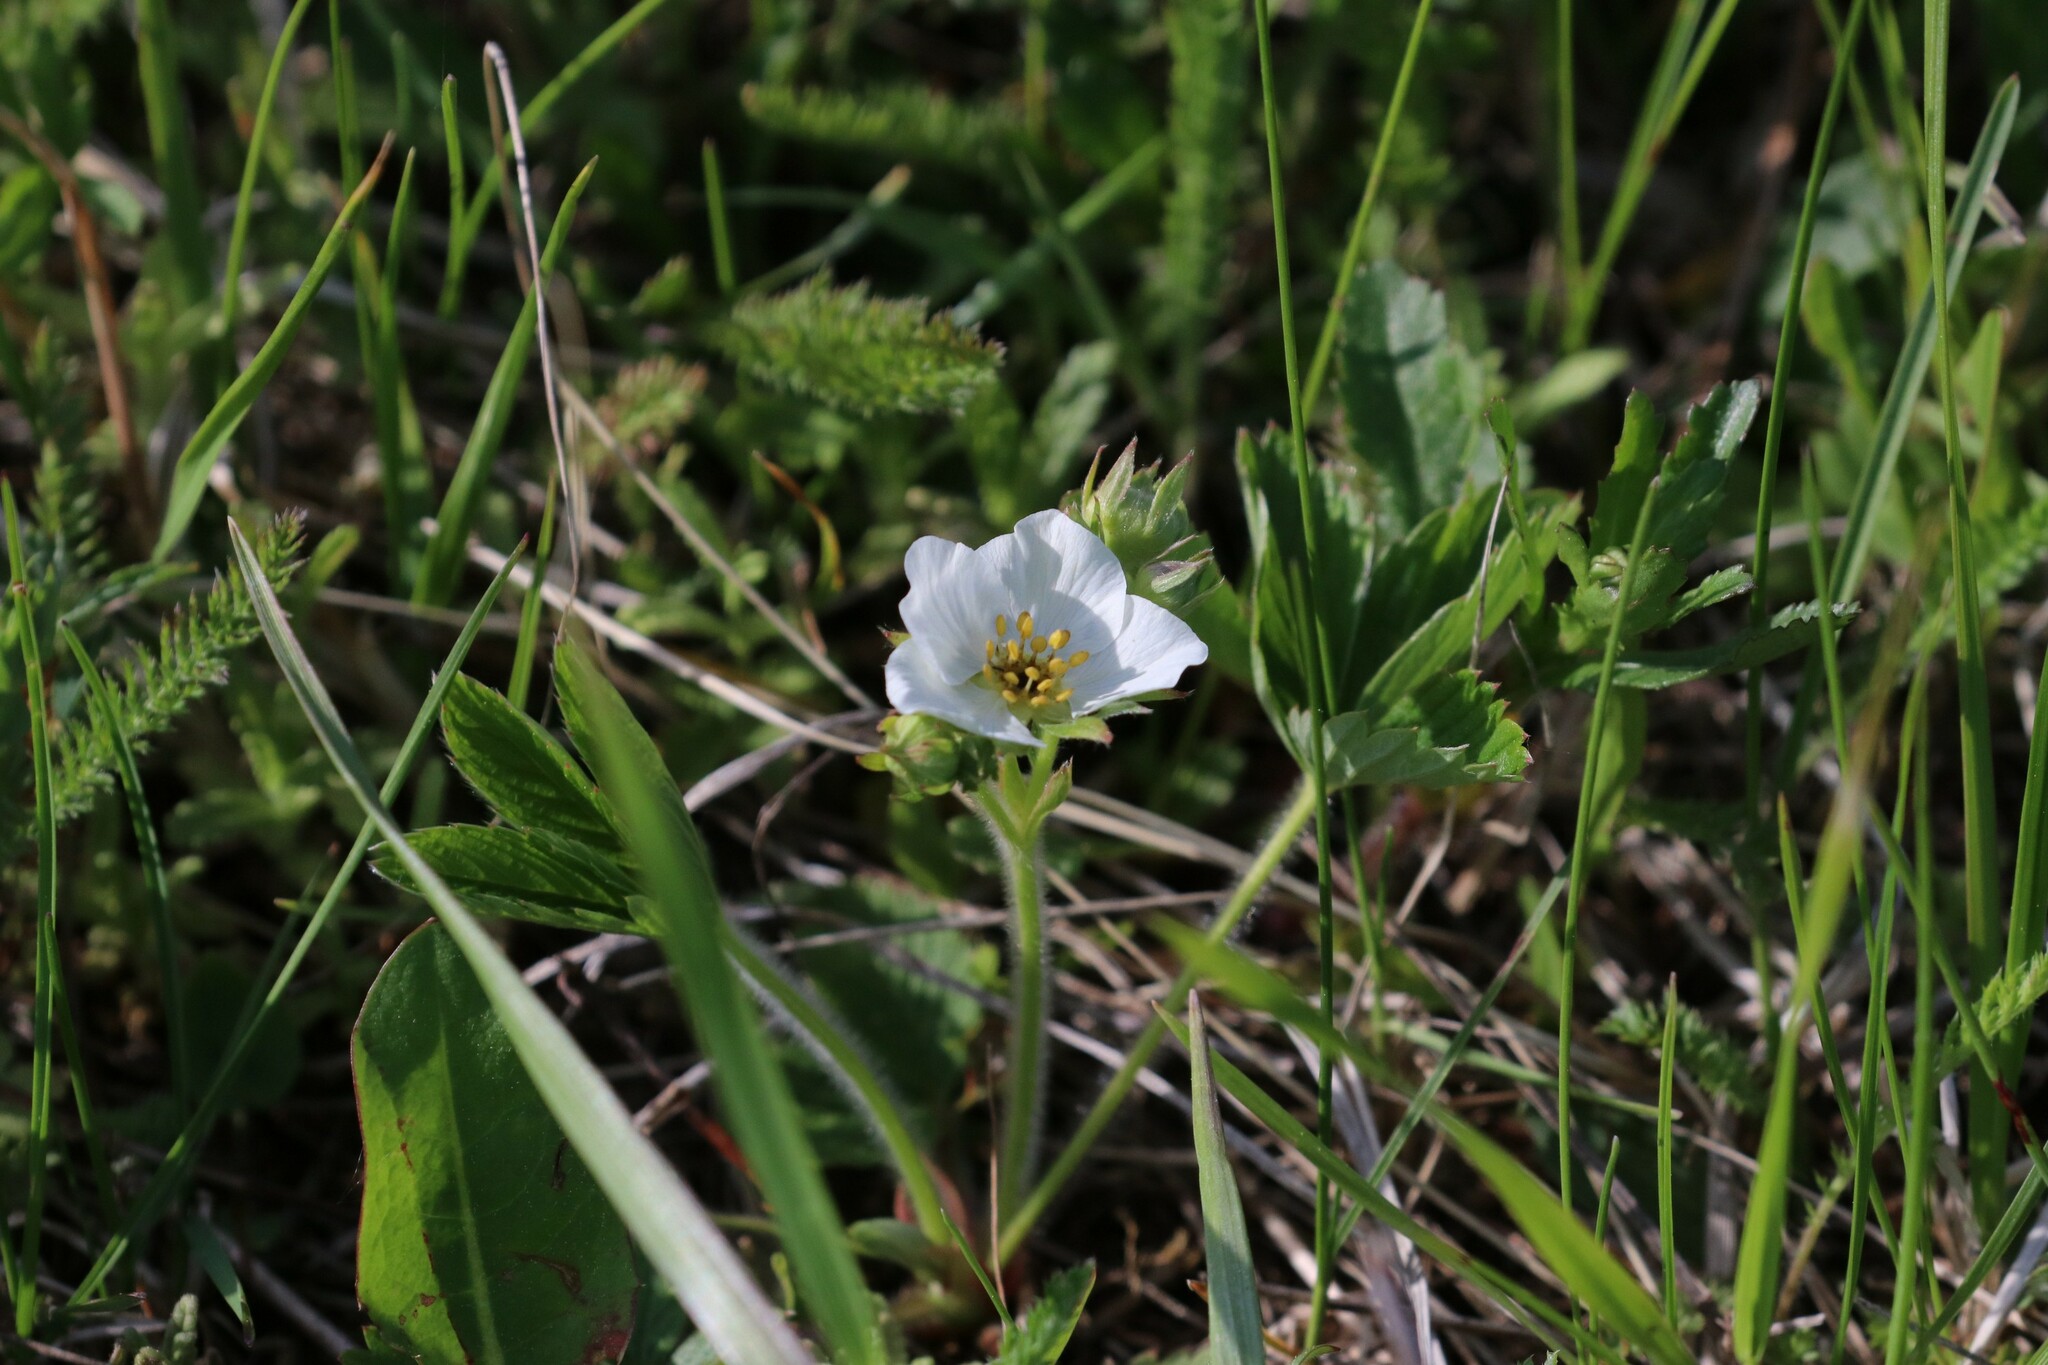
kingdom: Plantae
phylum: Tracheophyta
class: Magnoliopsida
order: Rosales
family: Rosaceae
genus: Fragaria
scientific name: Fragaria viridis
